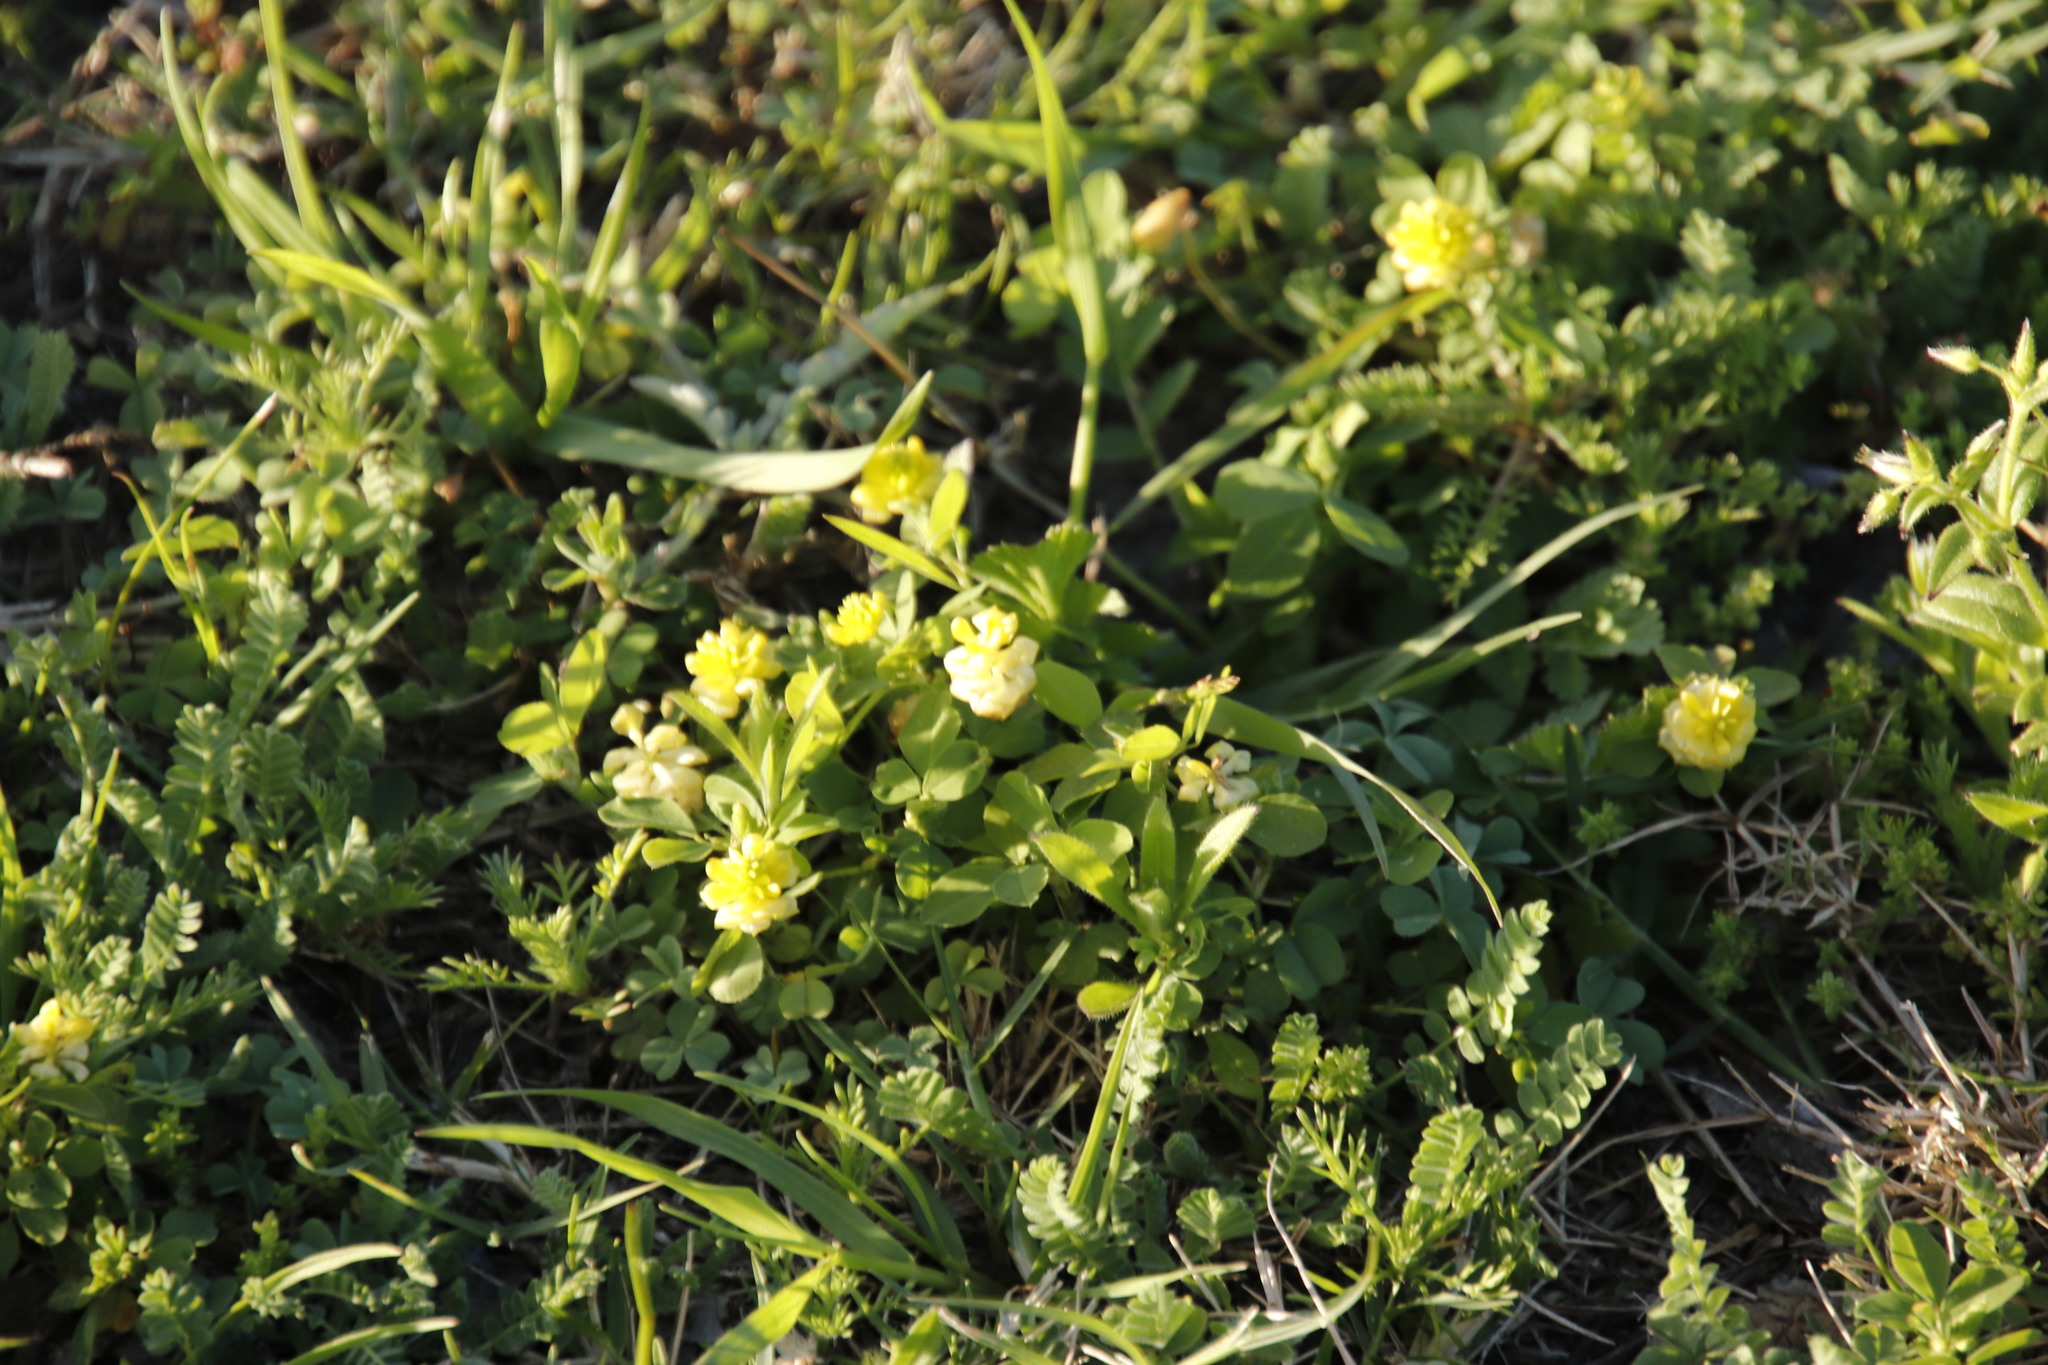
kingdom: Plantae
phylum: Tracheophyta
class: Magnoliopsida
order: Fabales
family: Fabaceae
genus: Trifolium
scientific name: Trifolium campestre
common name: Field clover
